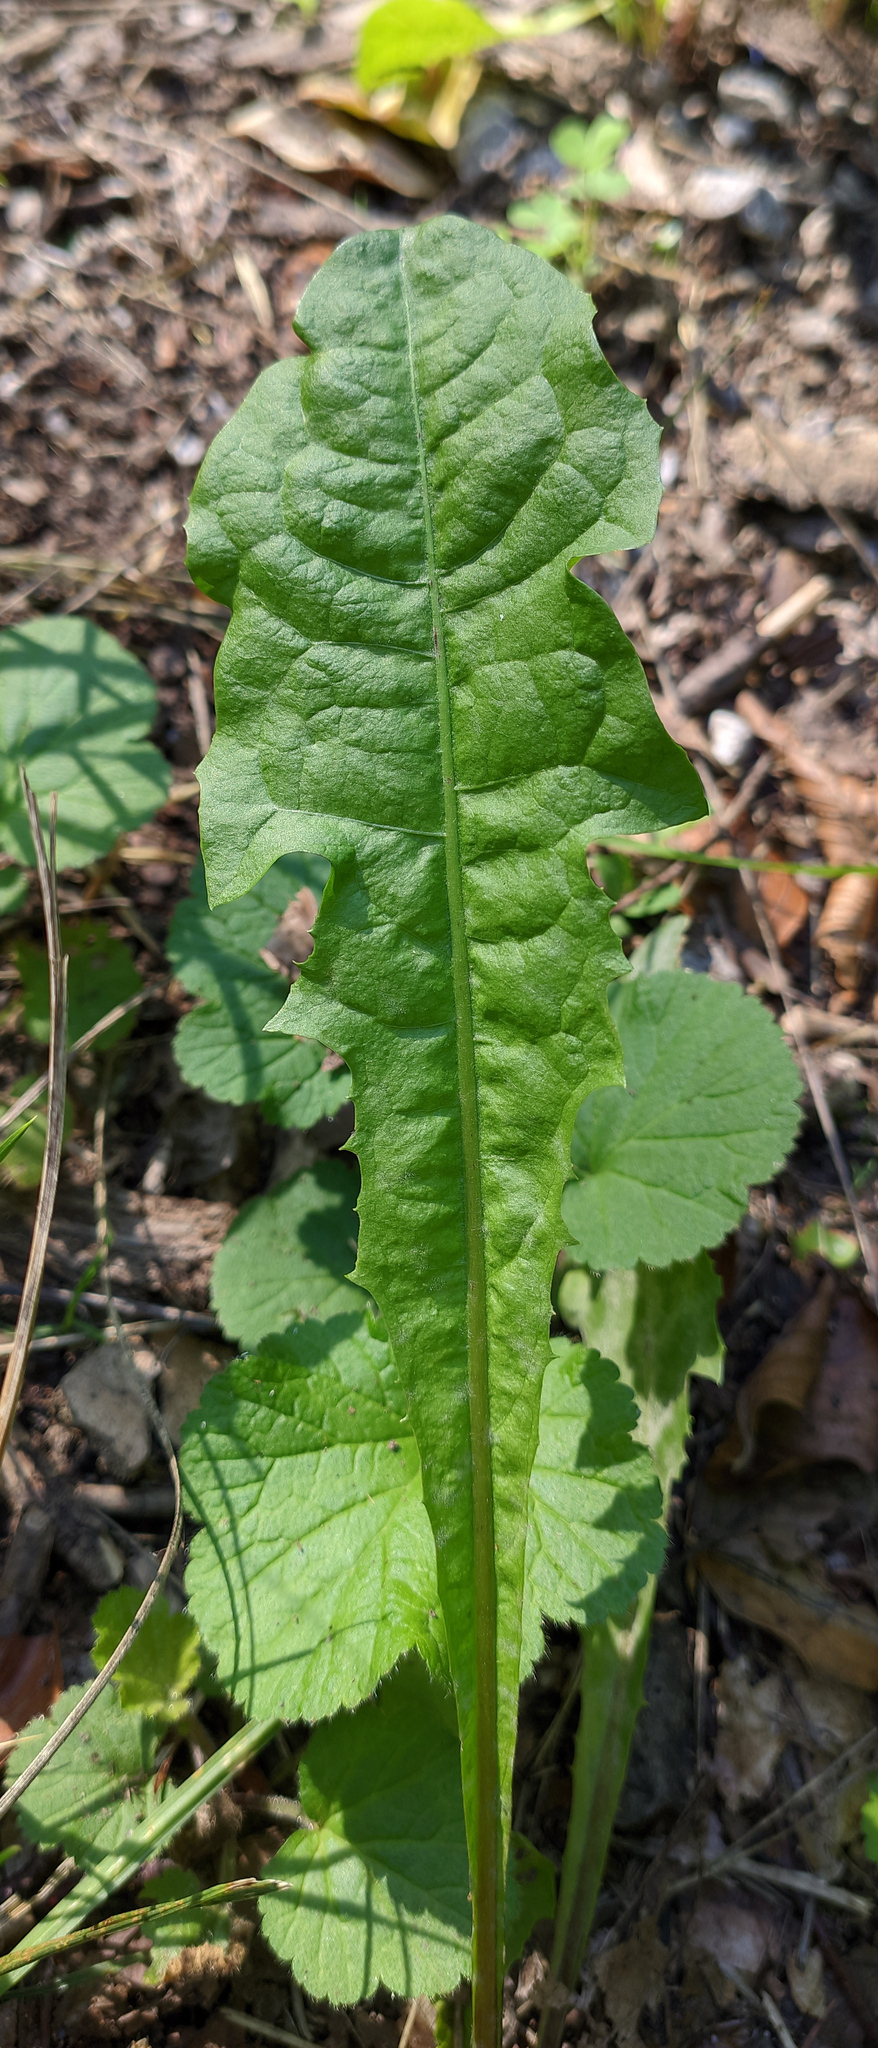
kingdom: Plantae
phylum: Tracheophyta
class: Magnoliopsida
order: Asterales
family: Asteraceae
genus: Taraxacum
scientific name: Taraxacum officinale
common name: Common dandelion
